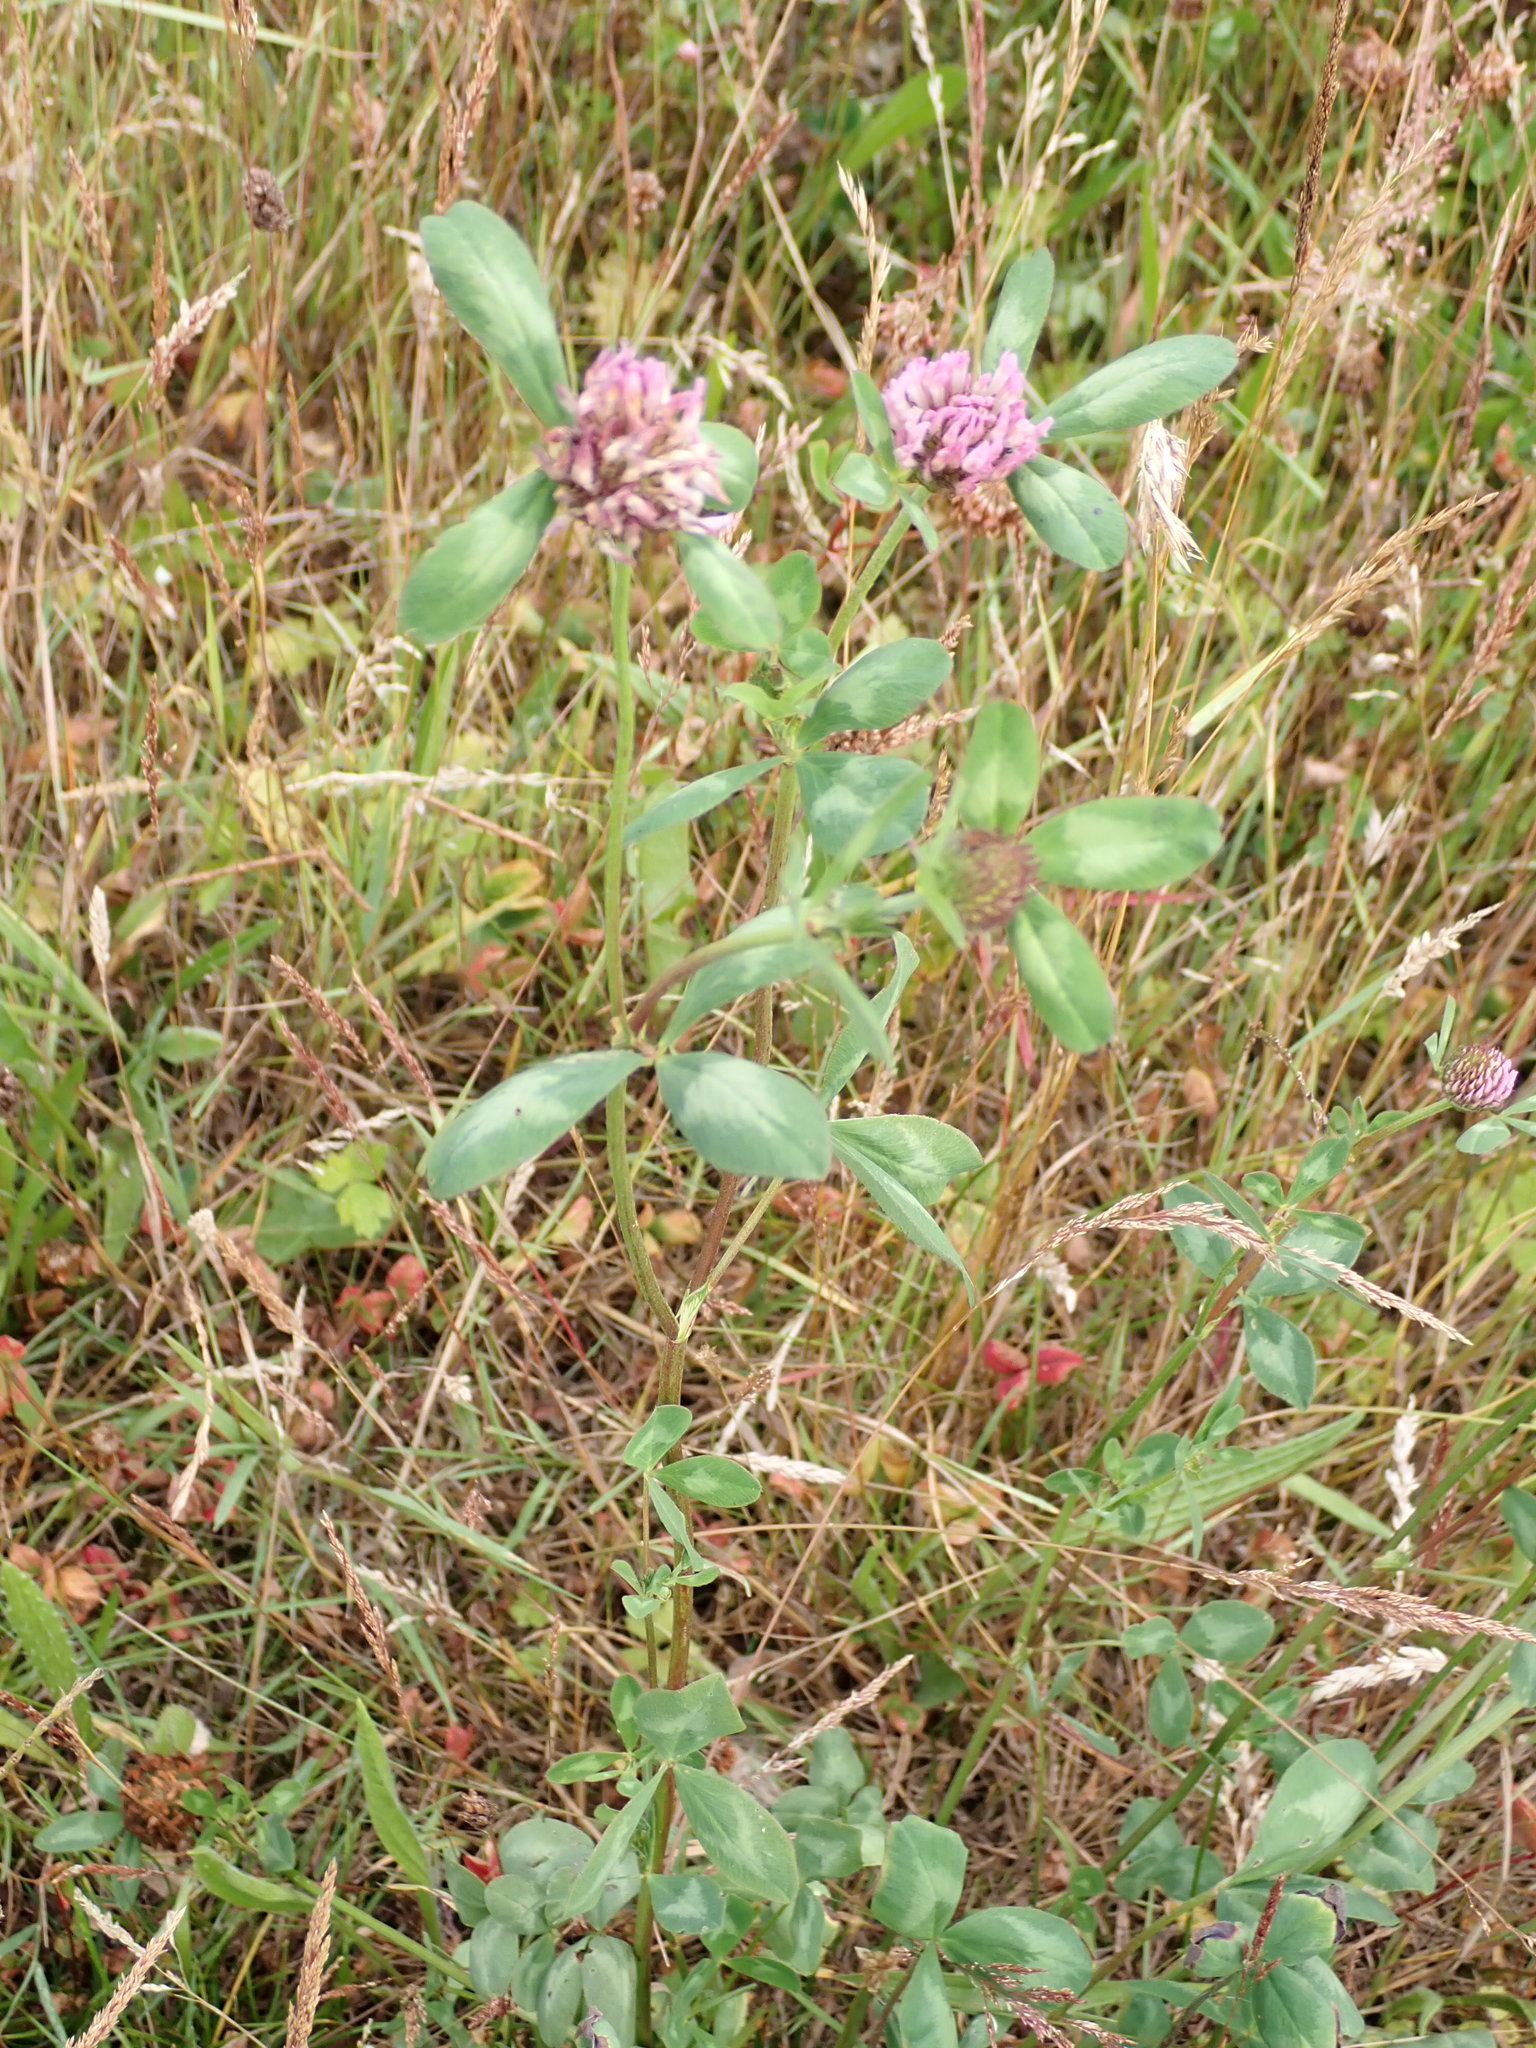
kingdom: Plantae
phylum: Tracheophyta
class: Magnoliopsida
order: Fabales
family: Fabaceae
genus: Trifolium
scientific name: Trifolium pratense
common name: Red clover
